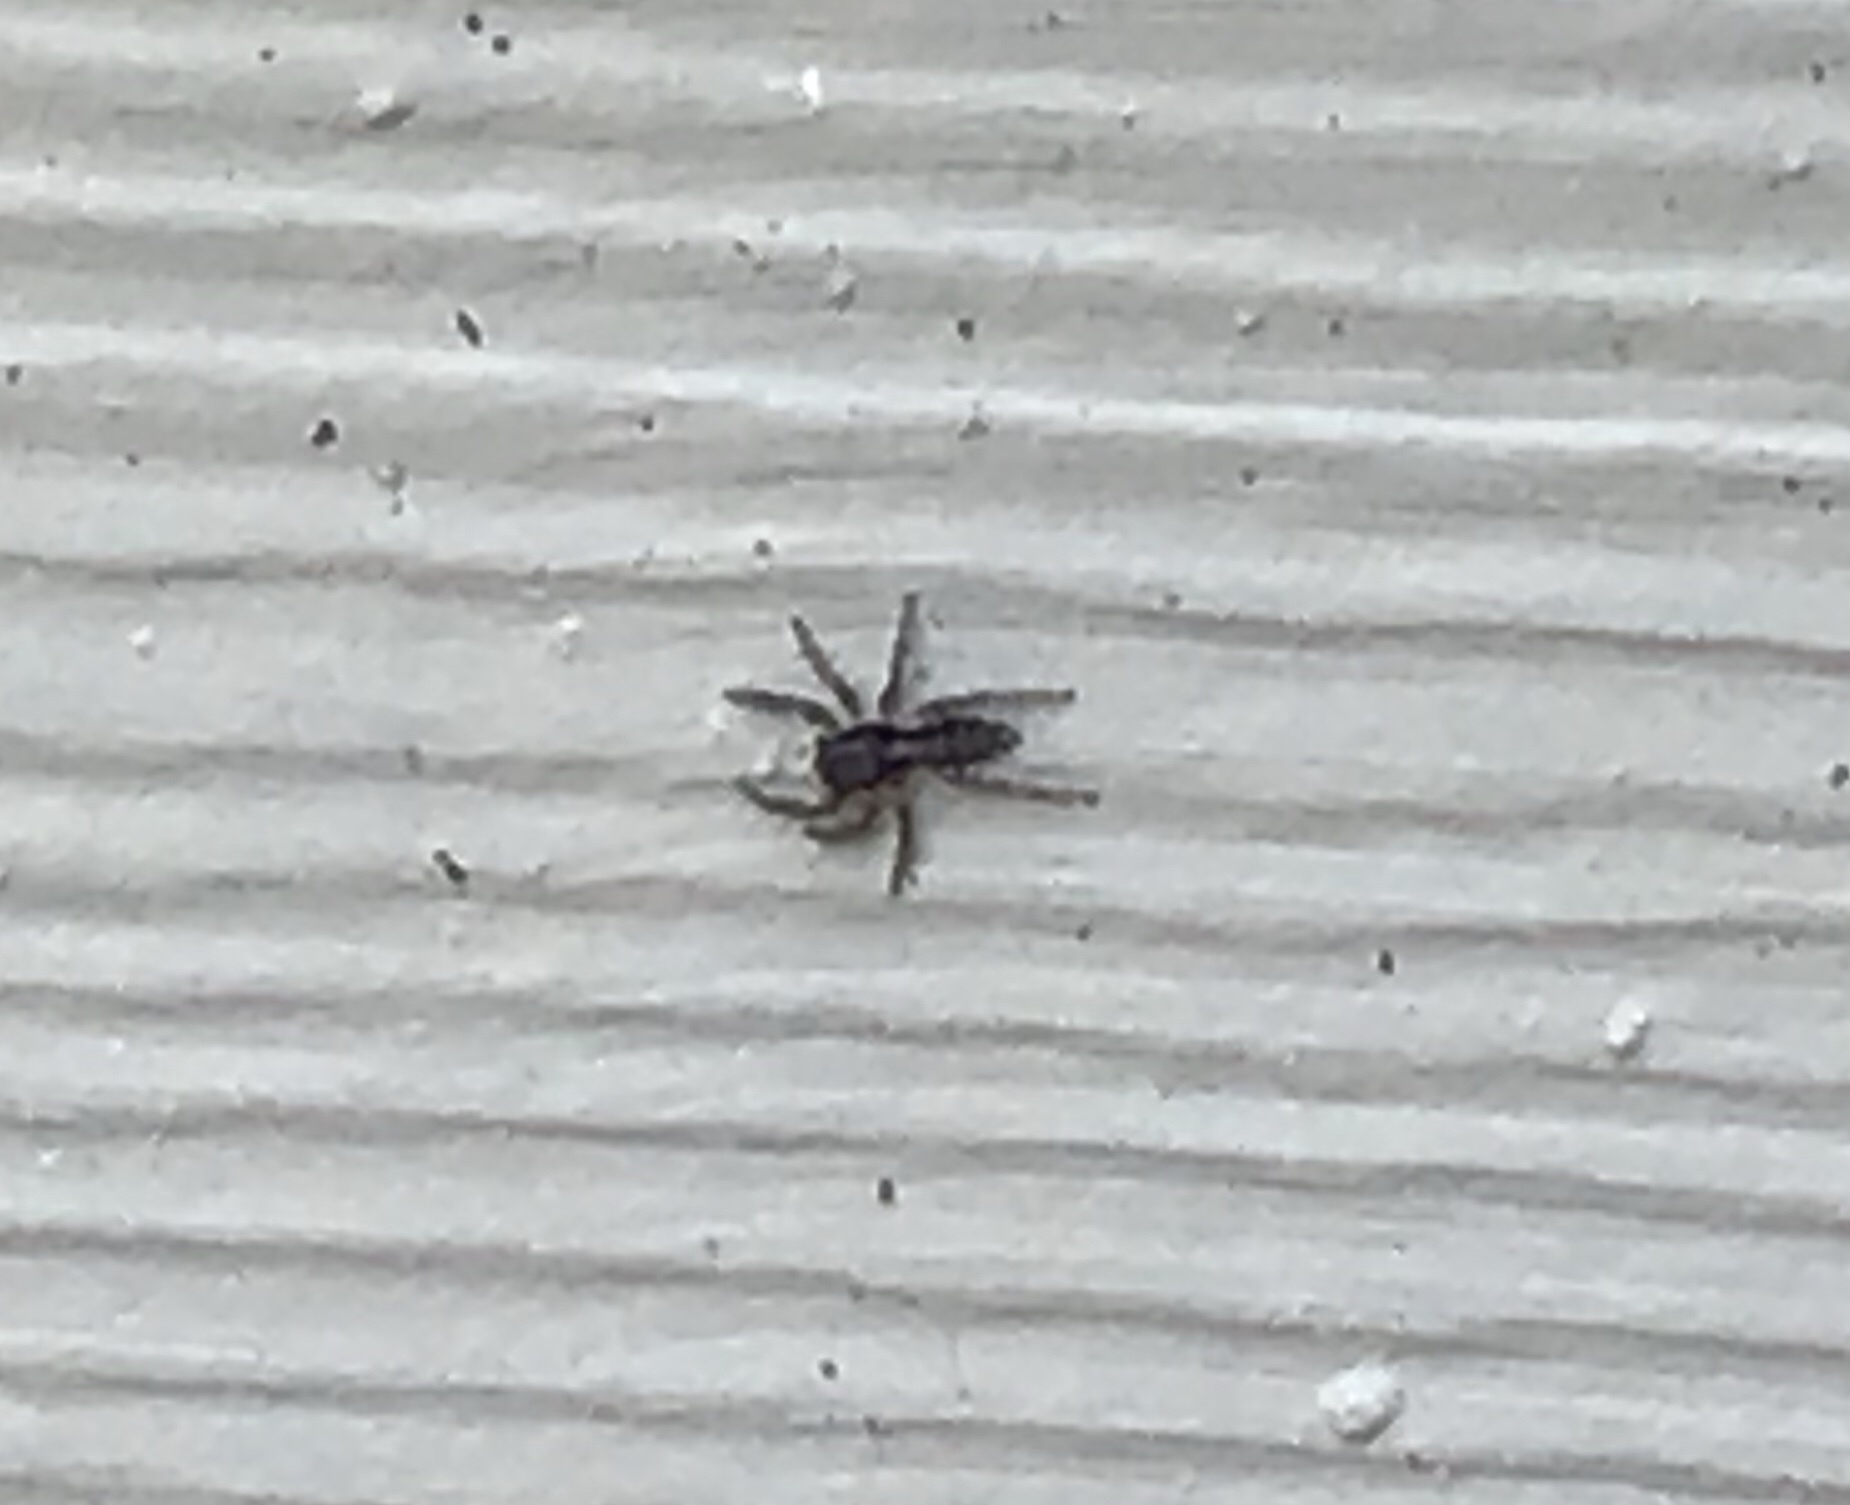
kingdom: Animalia
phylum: Arthropoda
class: Arachnida
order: Araneae
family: Salticidae
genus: Platycryptus
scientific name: Platycryptus californicus
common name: Jumping spiders
